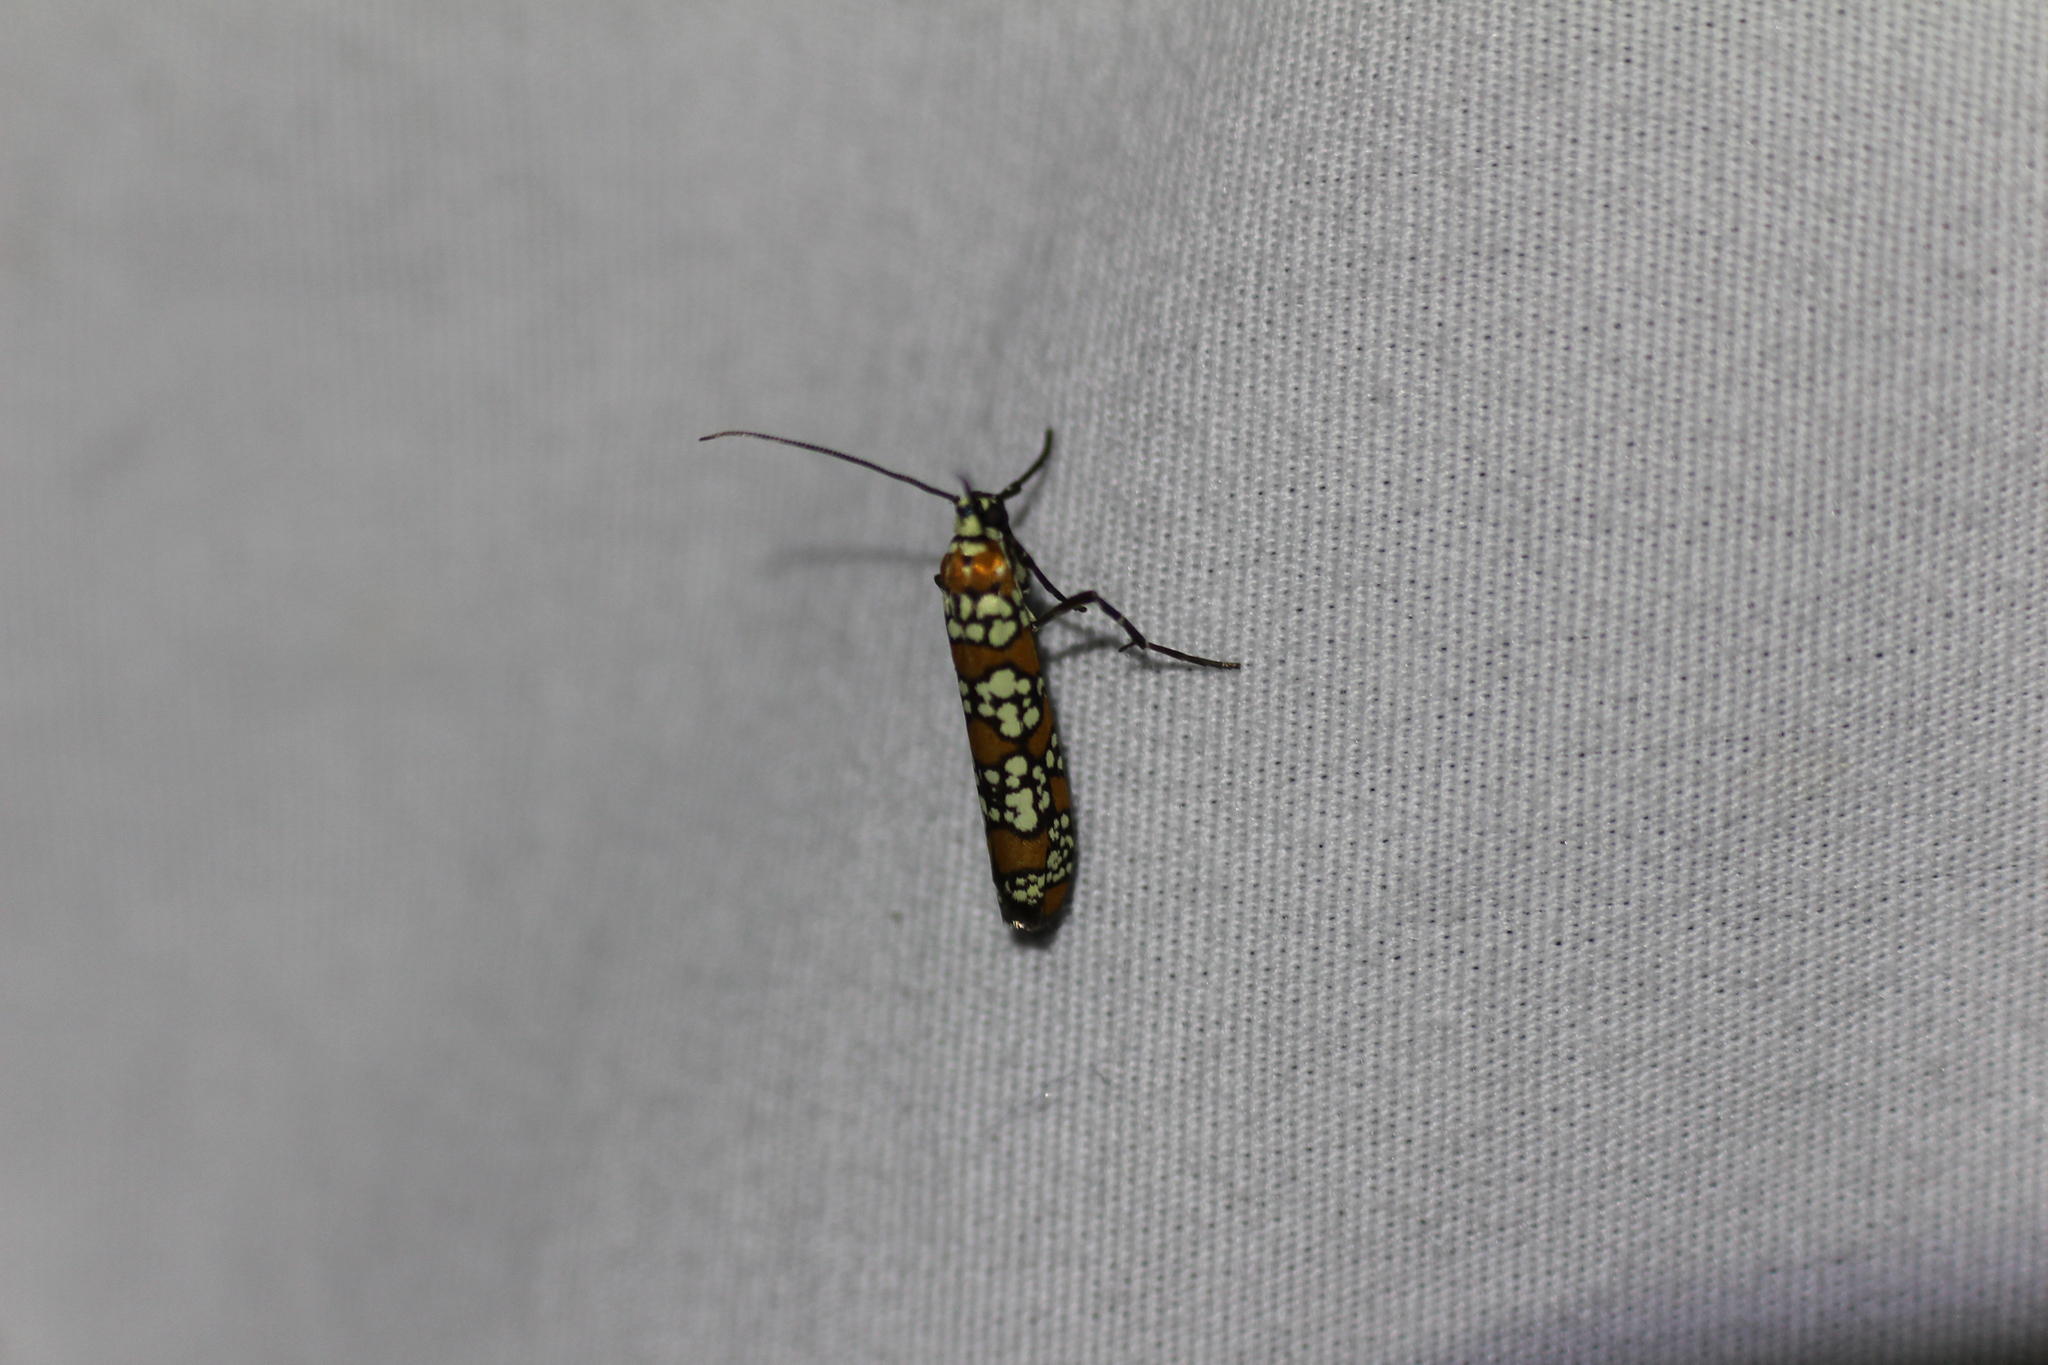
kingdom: Animalia
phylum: Arthropoda
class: Insecta
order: Lepidoptera
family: Attevidae
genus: Atteva
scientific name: Atteva punctella
